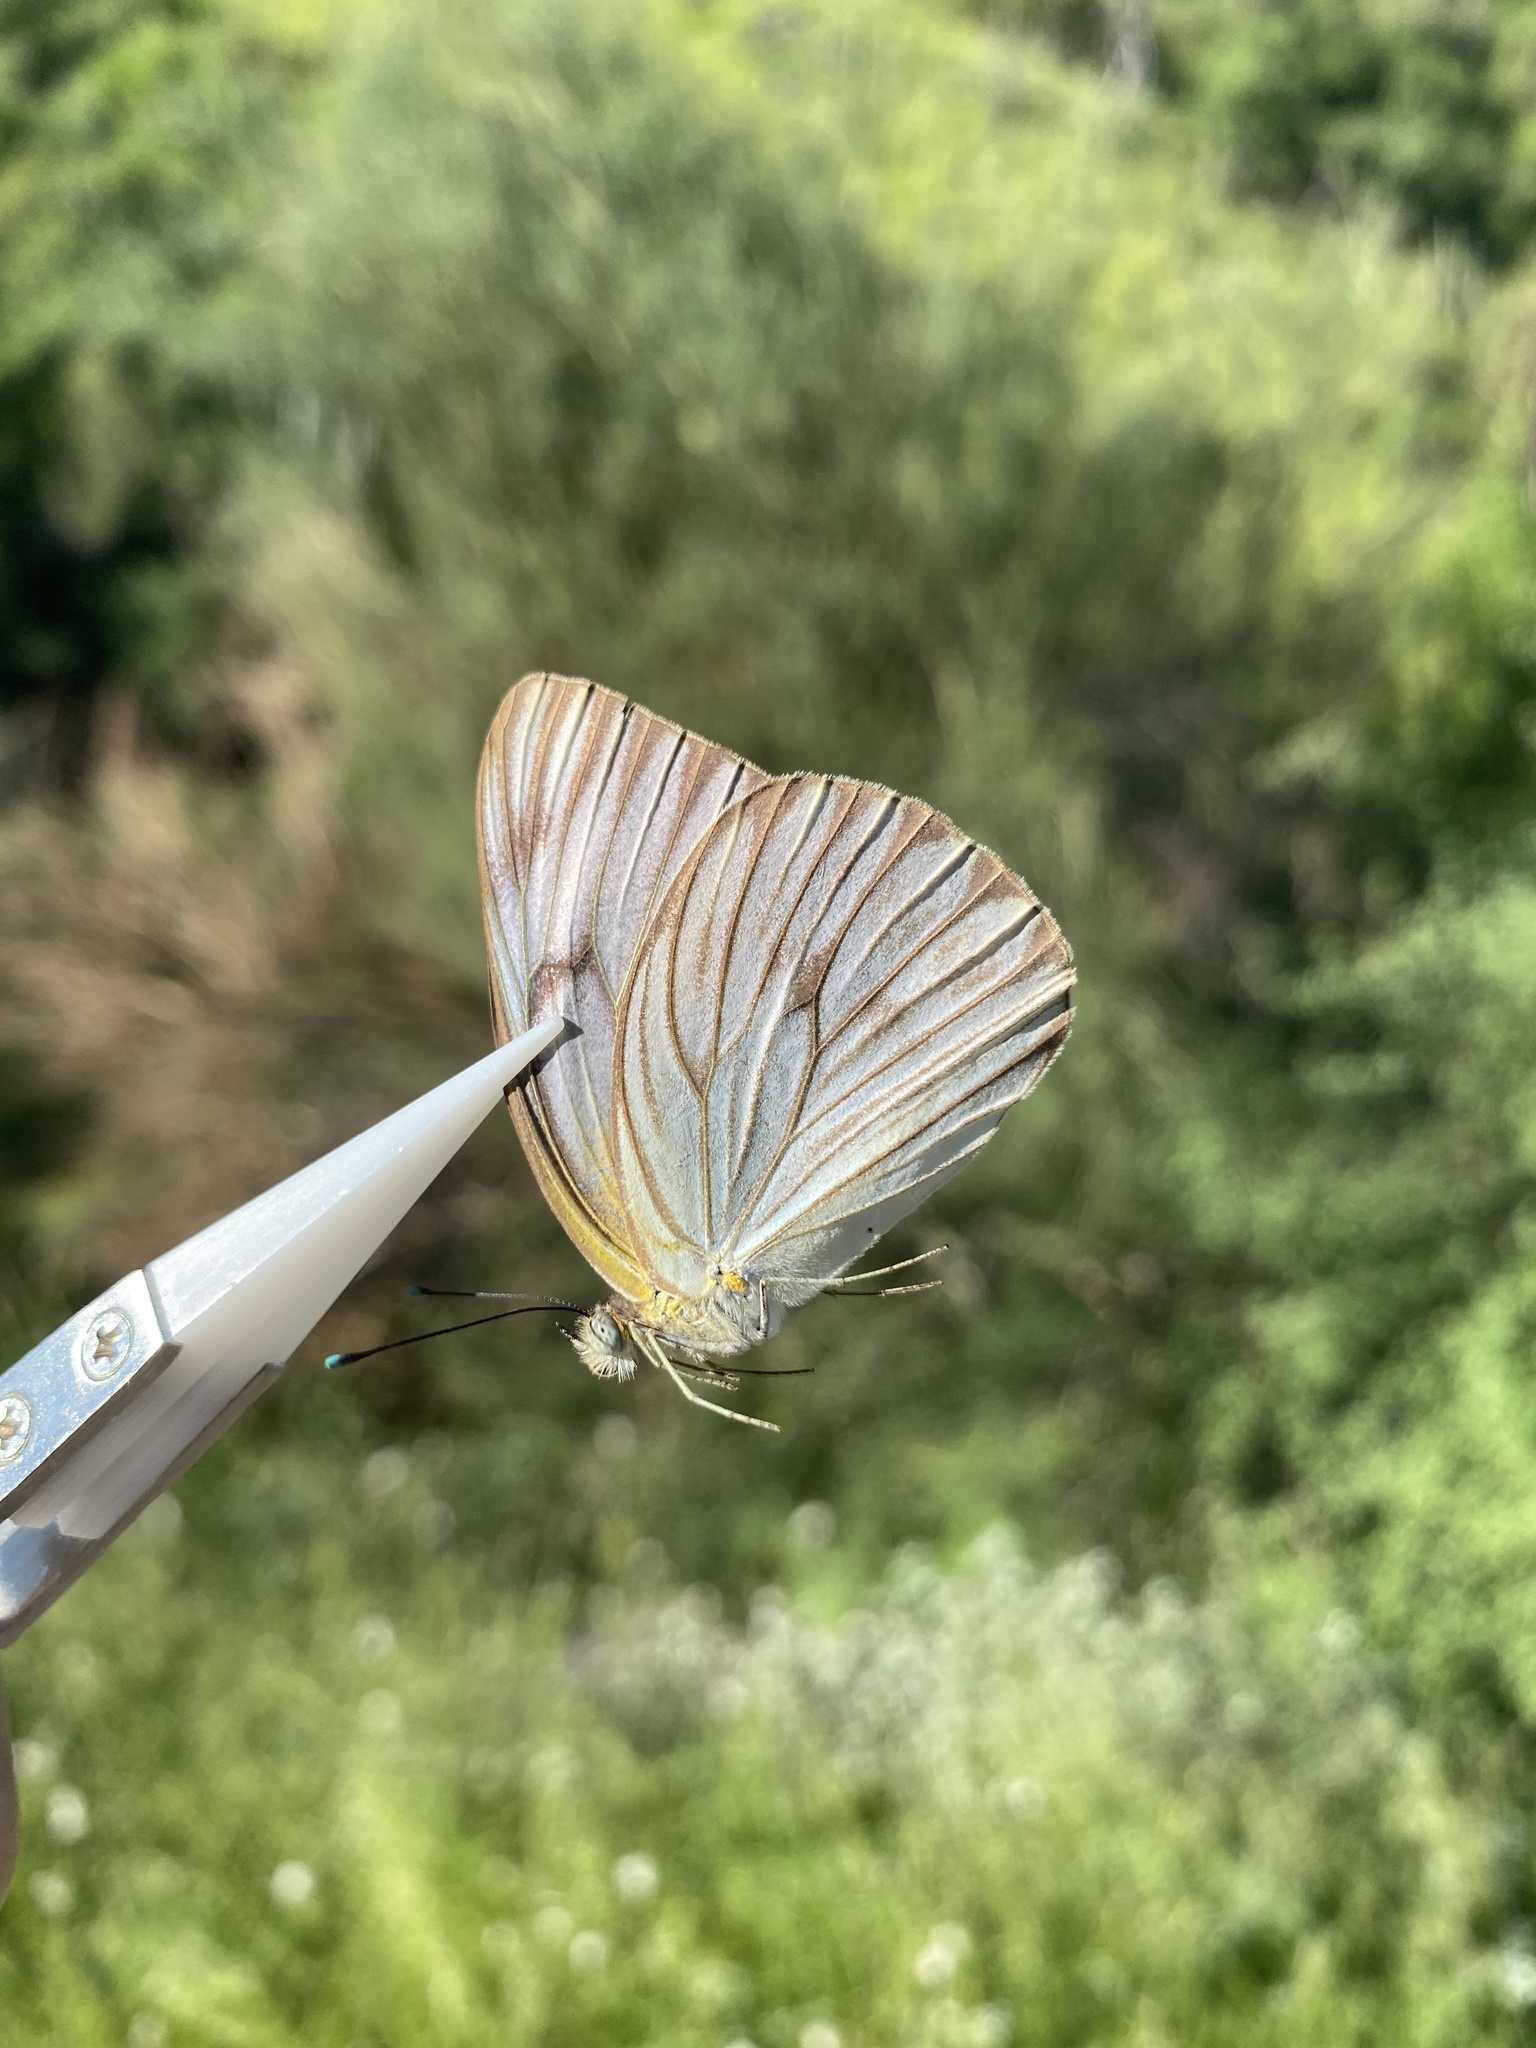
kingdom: Animalia
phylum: Arthropoda
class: Insecta
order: Lepidoptera
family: Pieridae
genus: Ascia
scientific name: Ascia monuste
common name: Great southern white
